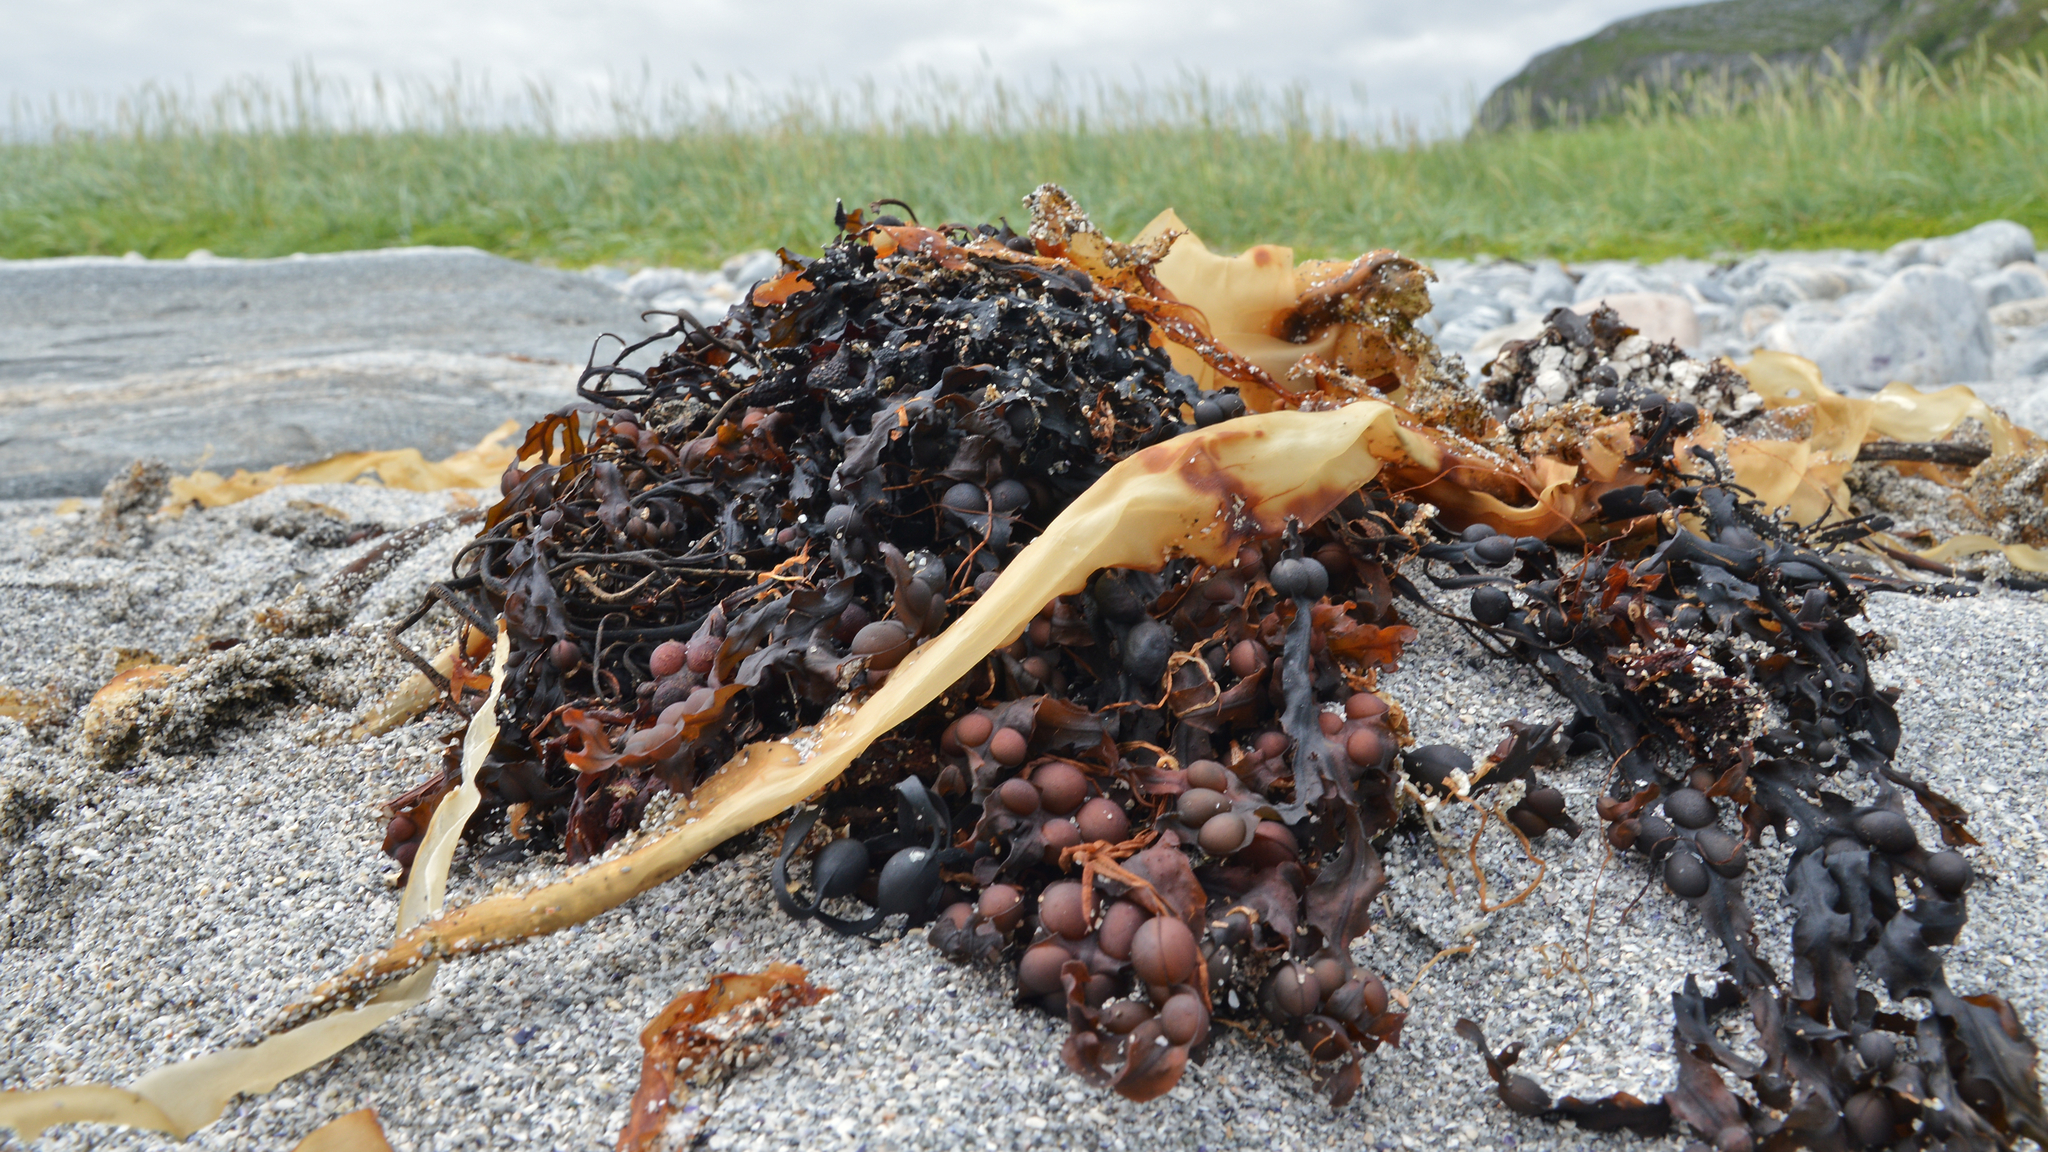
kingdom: Chromista
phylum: Ochrophyta
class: Phaeophyceae
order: Fucales
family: Fucaceae
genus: Fucus
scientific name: Fucus vesiculosus
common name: Bladder wrack
